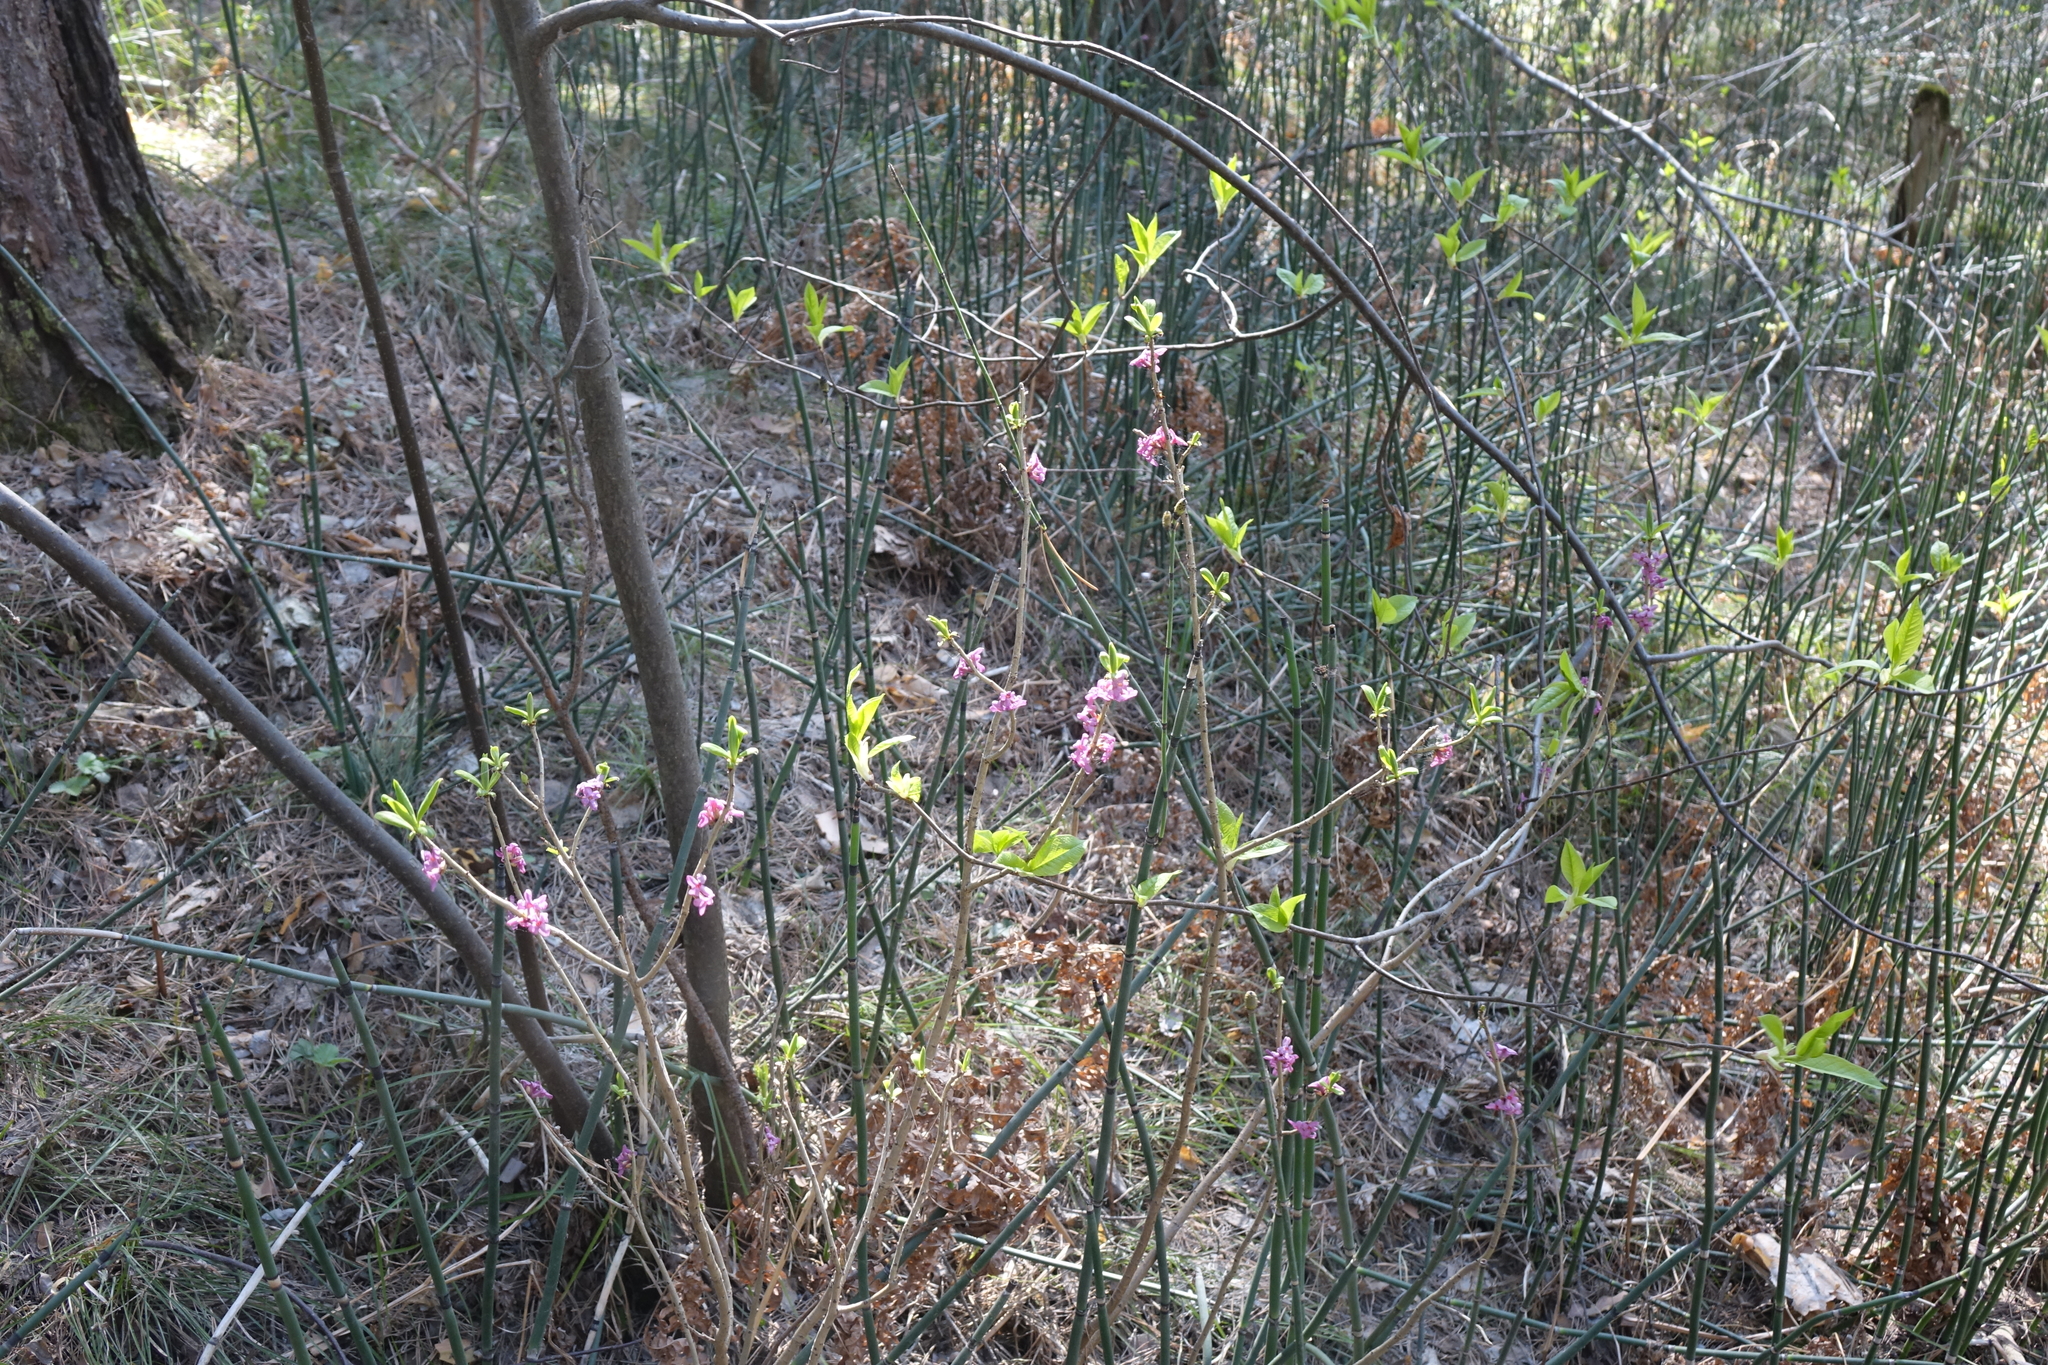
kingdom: Plantae
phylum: Tracheophyta
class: Magnoliopsida
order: Malvales
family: Thymelaeaceae
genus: Daphne
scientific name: Daphne mezereum
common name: Mezereon
